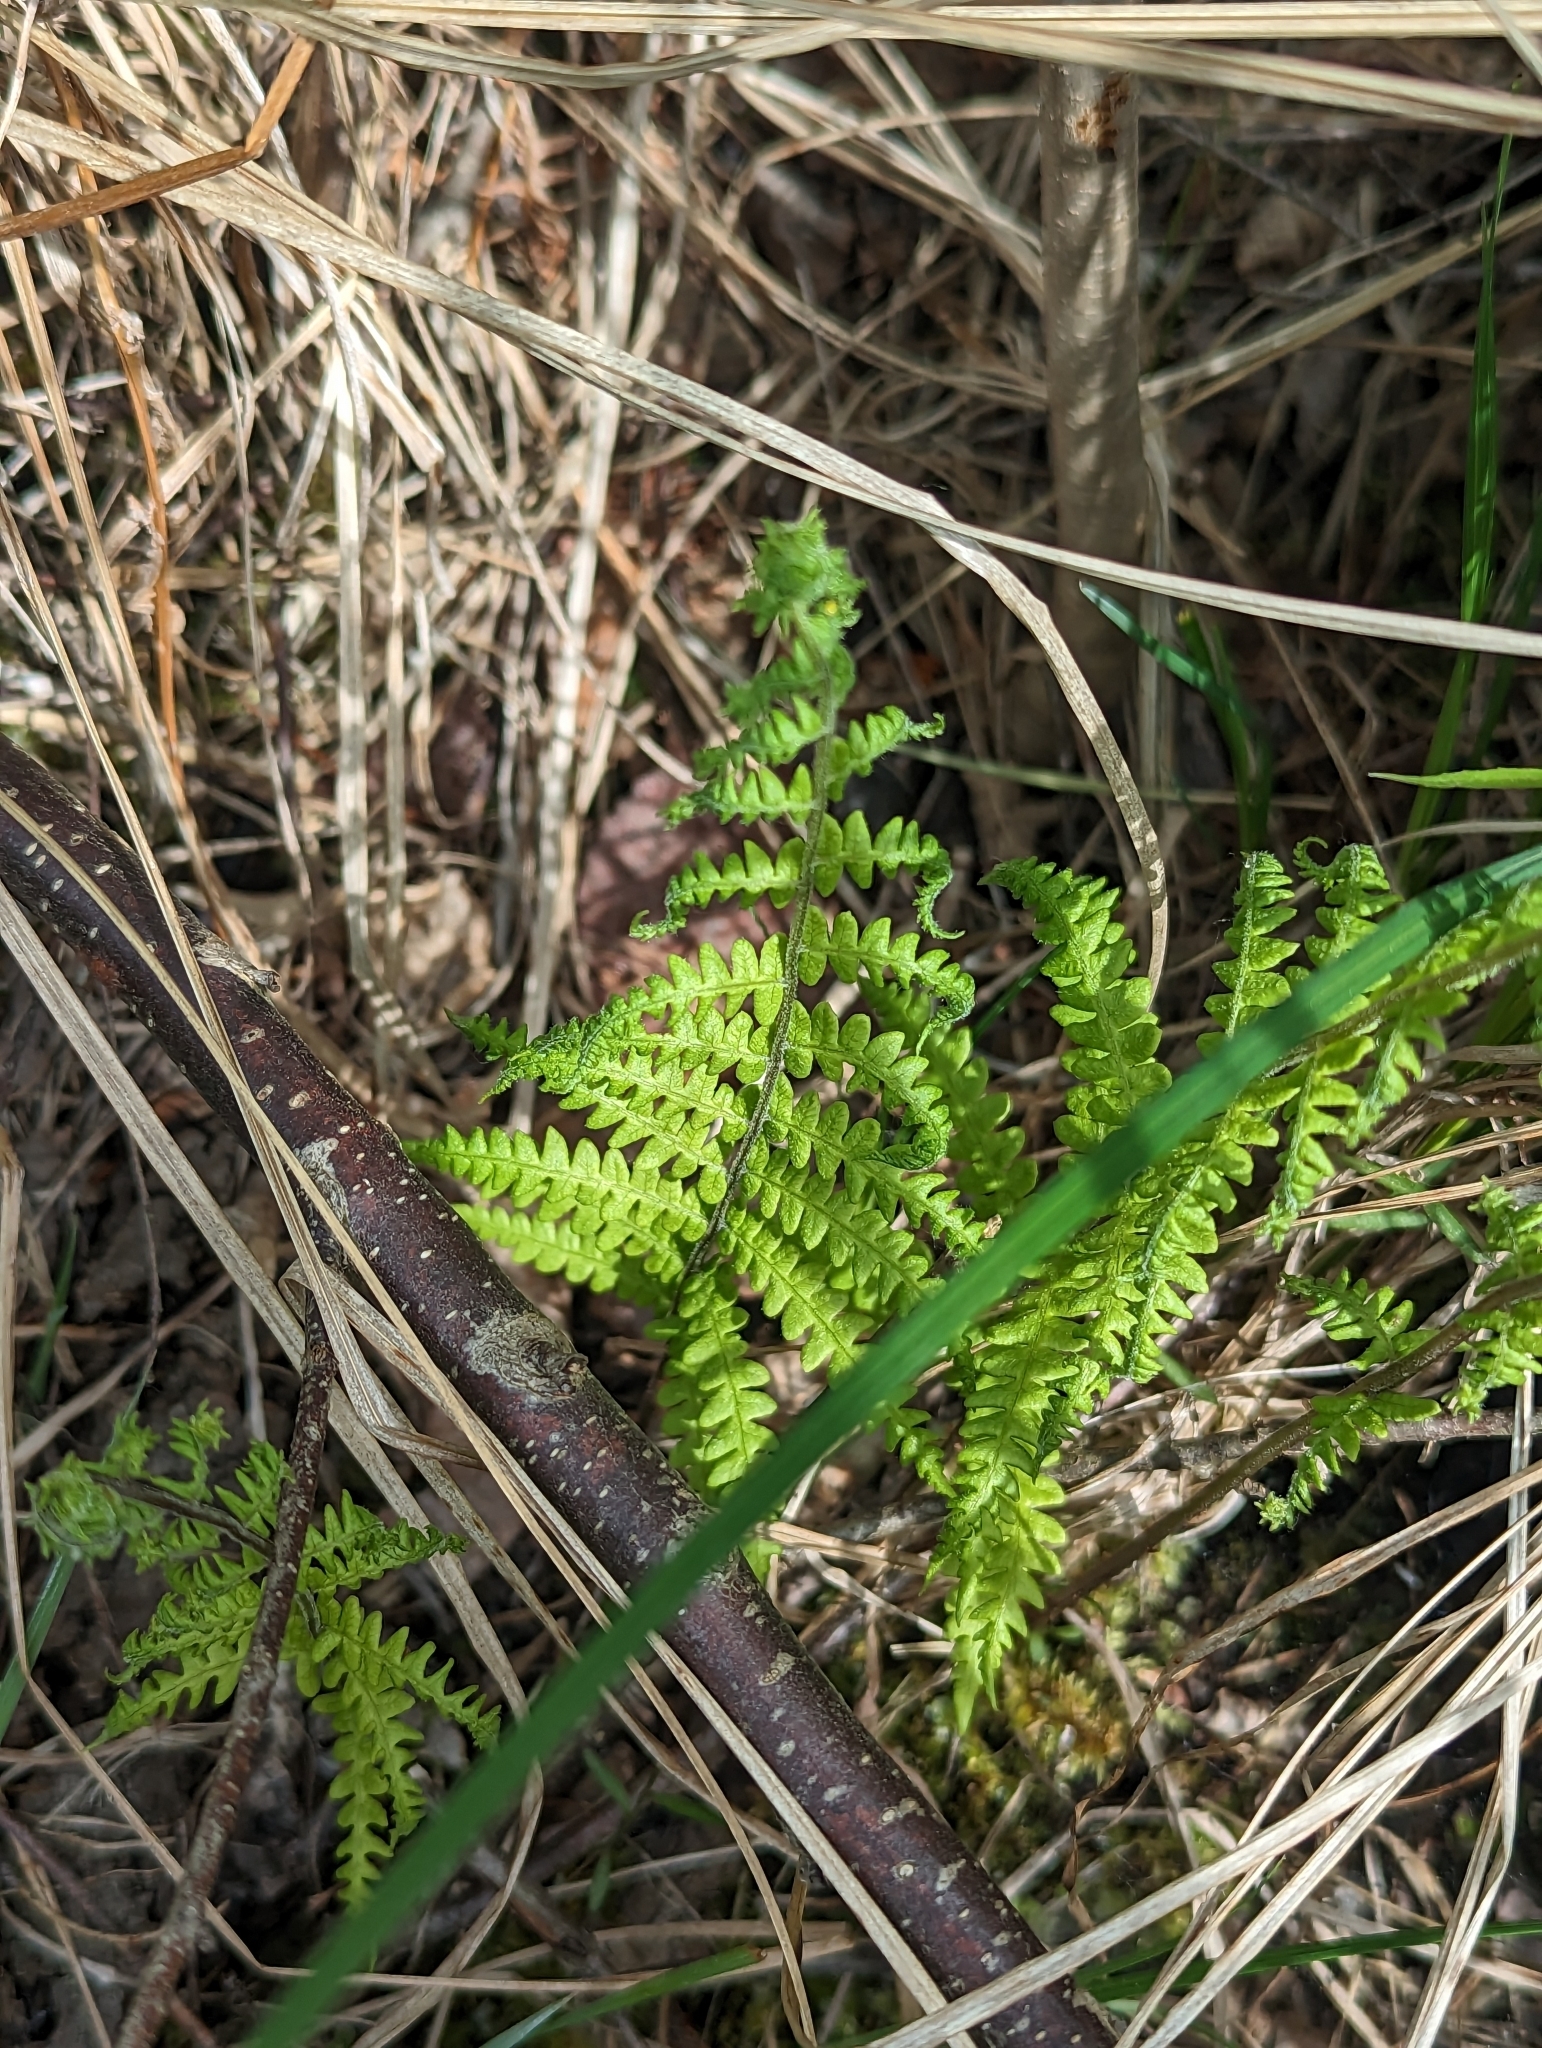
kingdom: Plantae
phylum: Tracheophyta
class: Polypodiopsida
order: Polypodiales
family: Thelypteridaceae
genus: Thelypteris
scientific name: Thelypteris palustris
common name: Marsh fern
